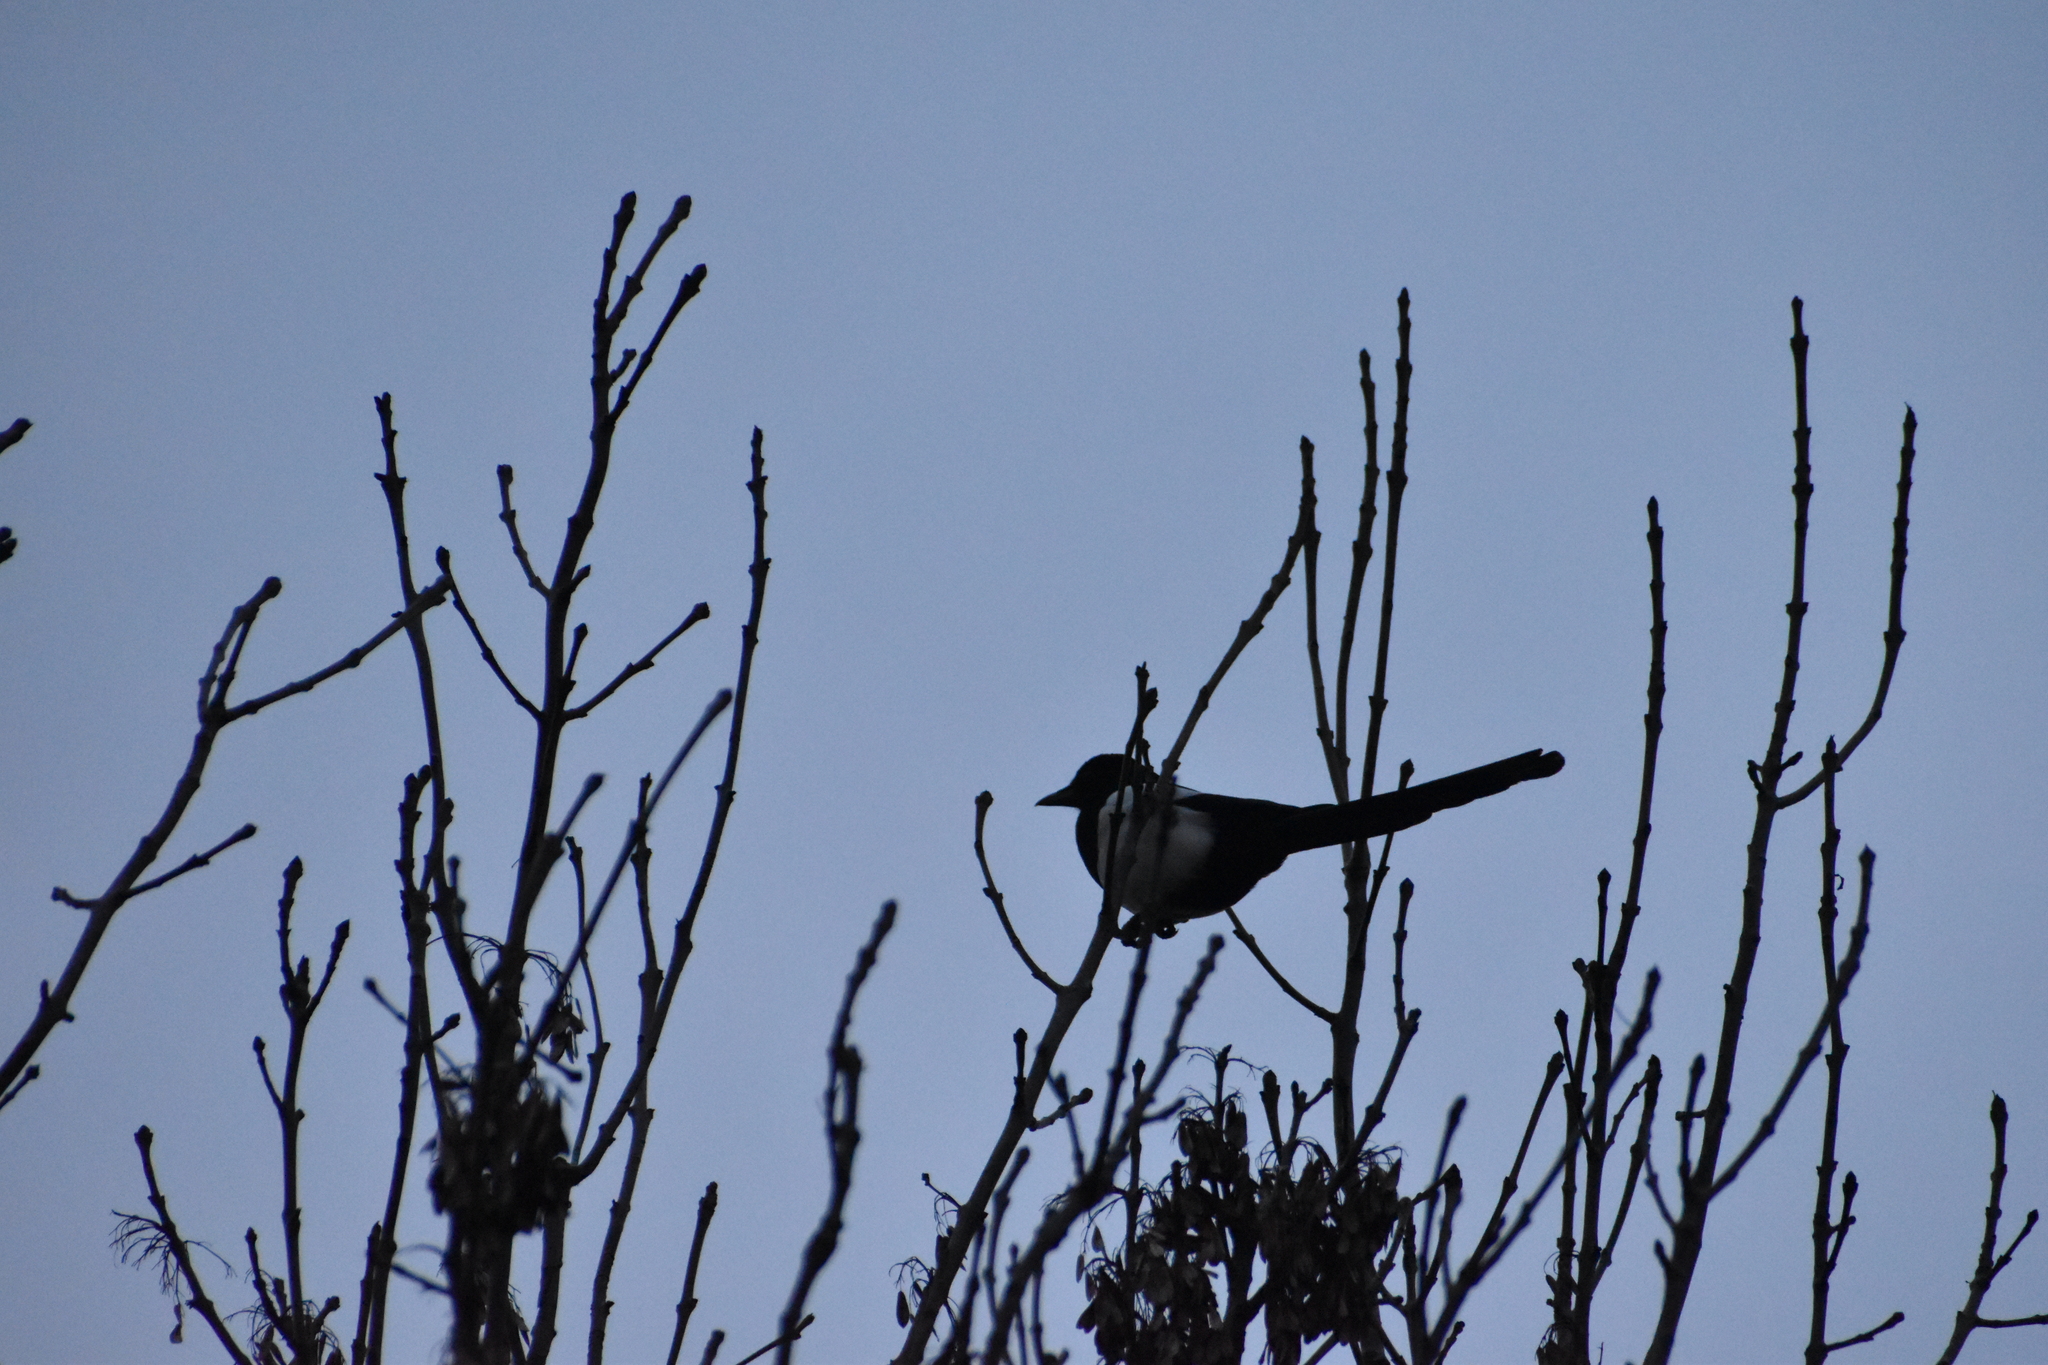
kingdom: Animalia
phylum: Chordata
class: Aves
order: Passeriformes
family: Corvidae
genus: Pica
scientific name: Pica pica
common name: Eurasian magpie
